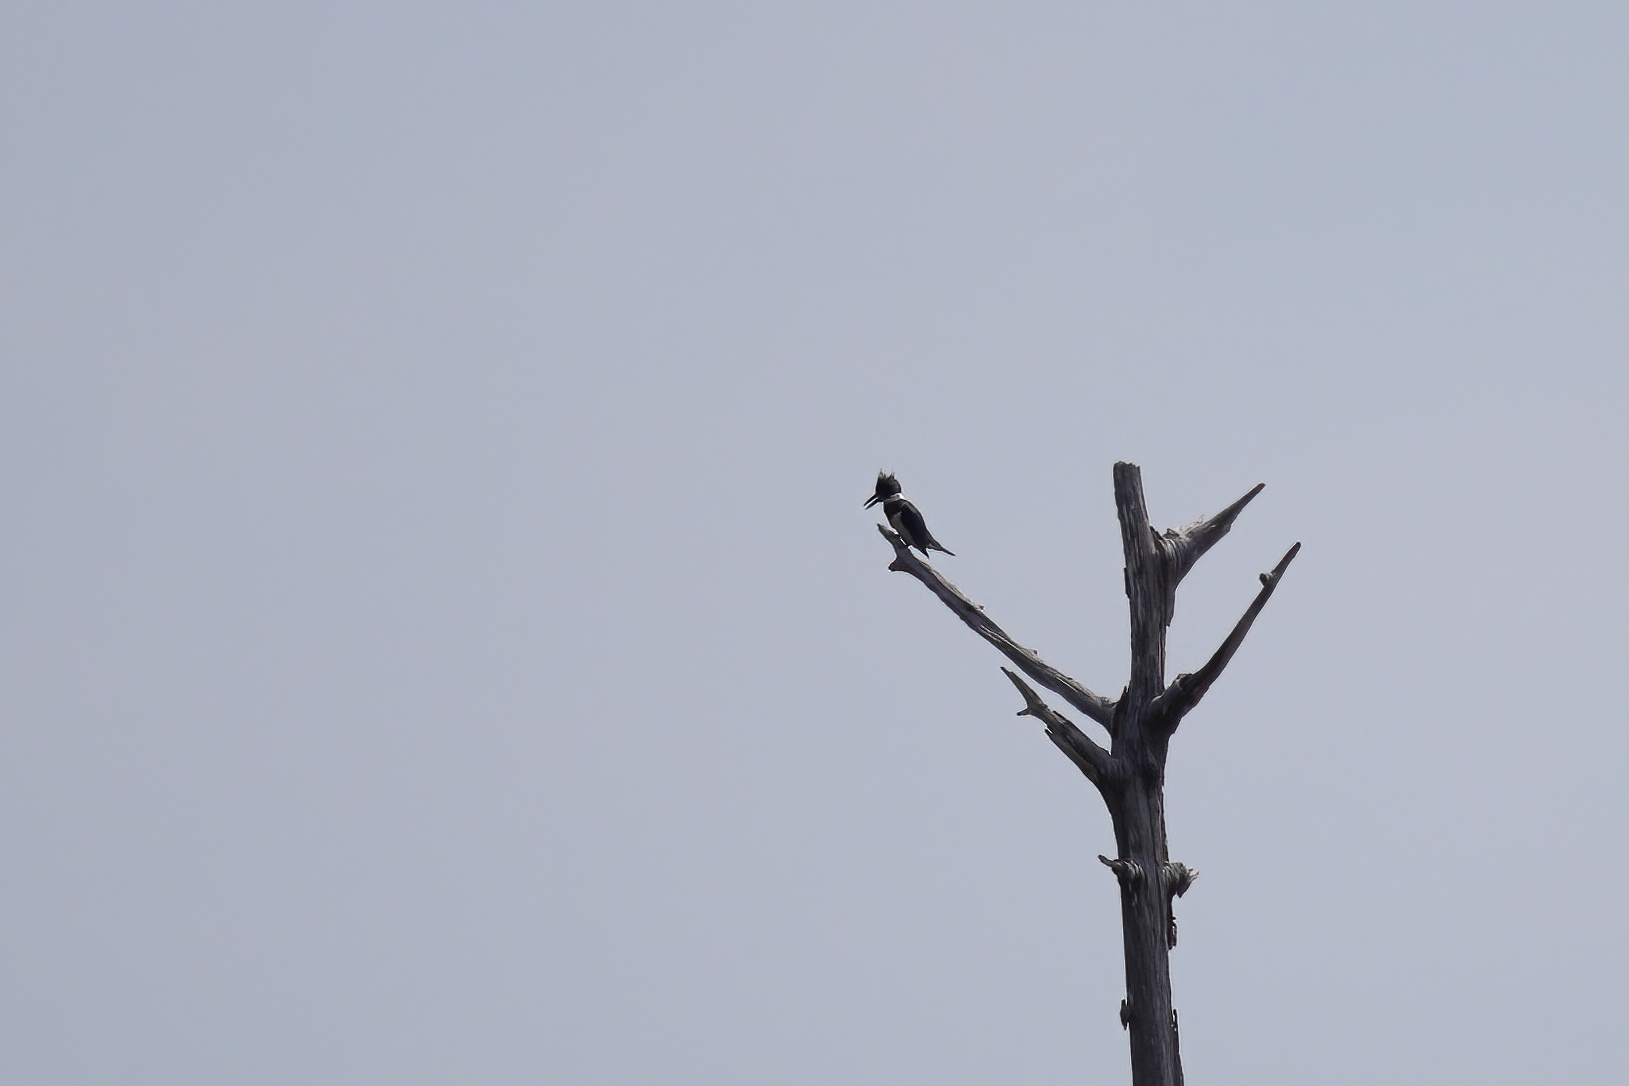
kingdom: Animalia
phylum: Chordata
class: Aves
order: Coraciiformes
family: Alcedinidae
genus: Megaceryle
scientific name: Megaceryle alcyon
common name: Belted kingfisher
